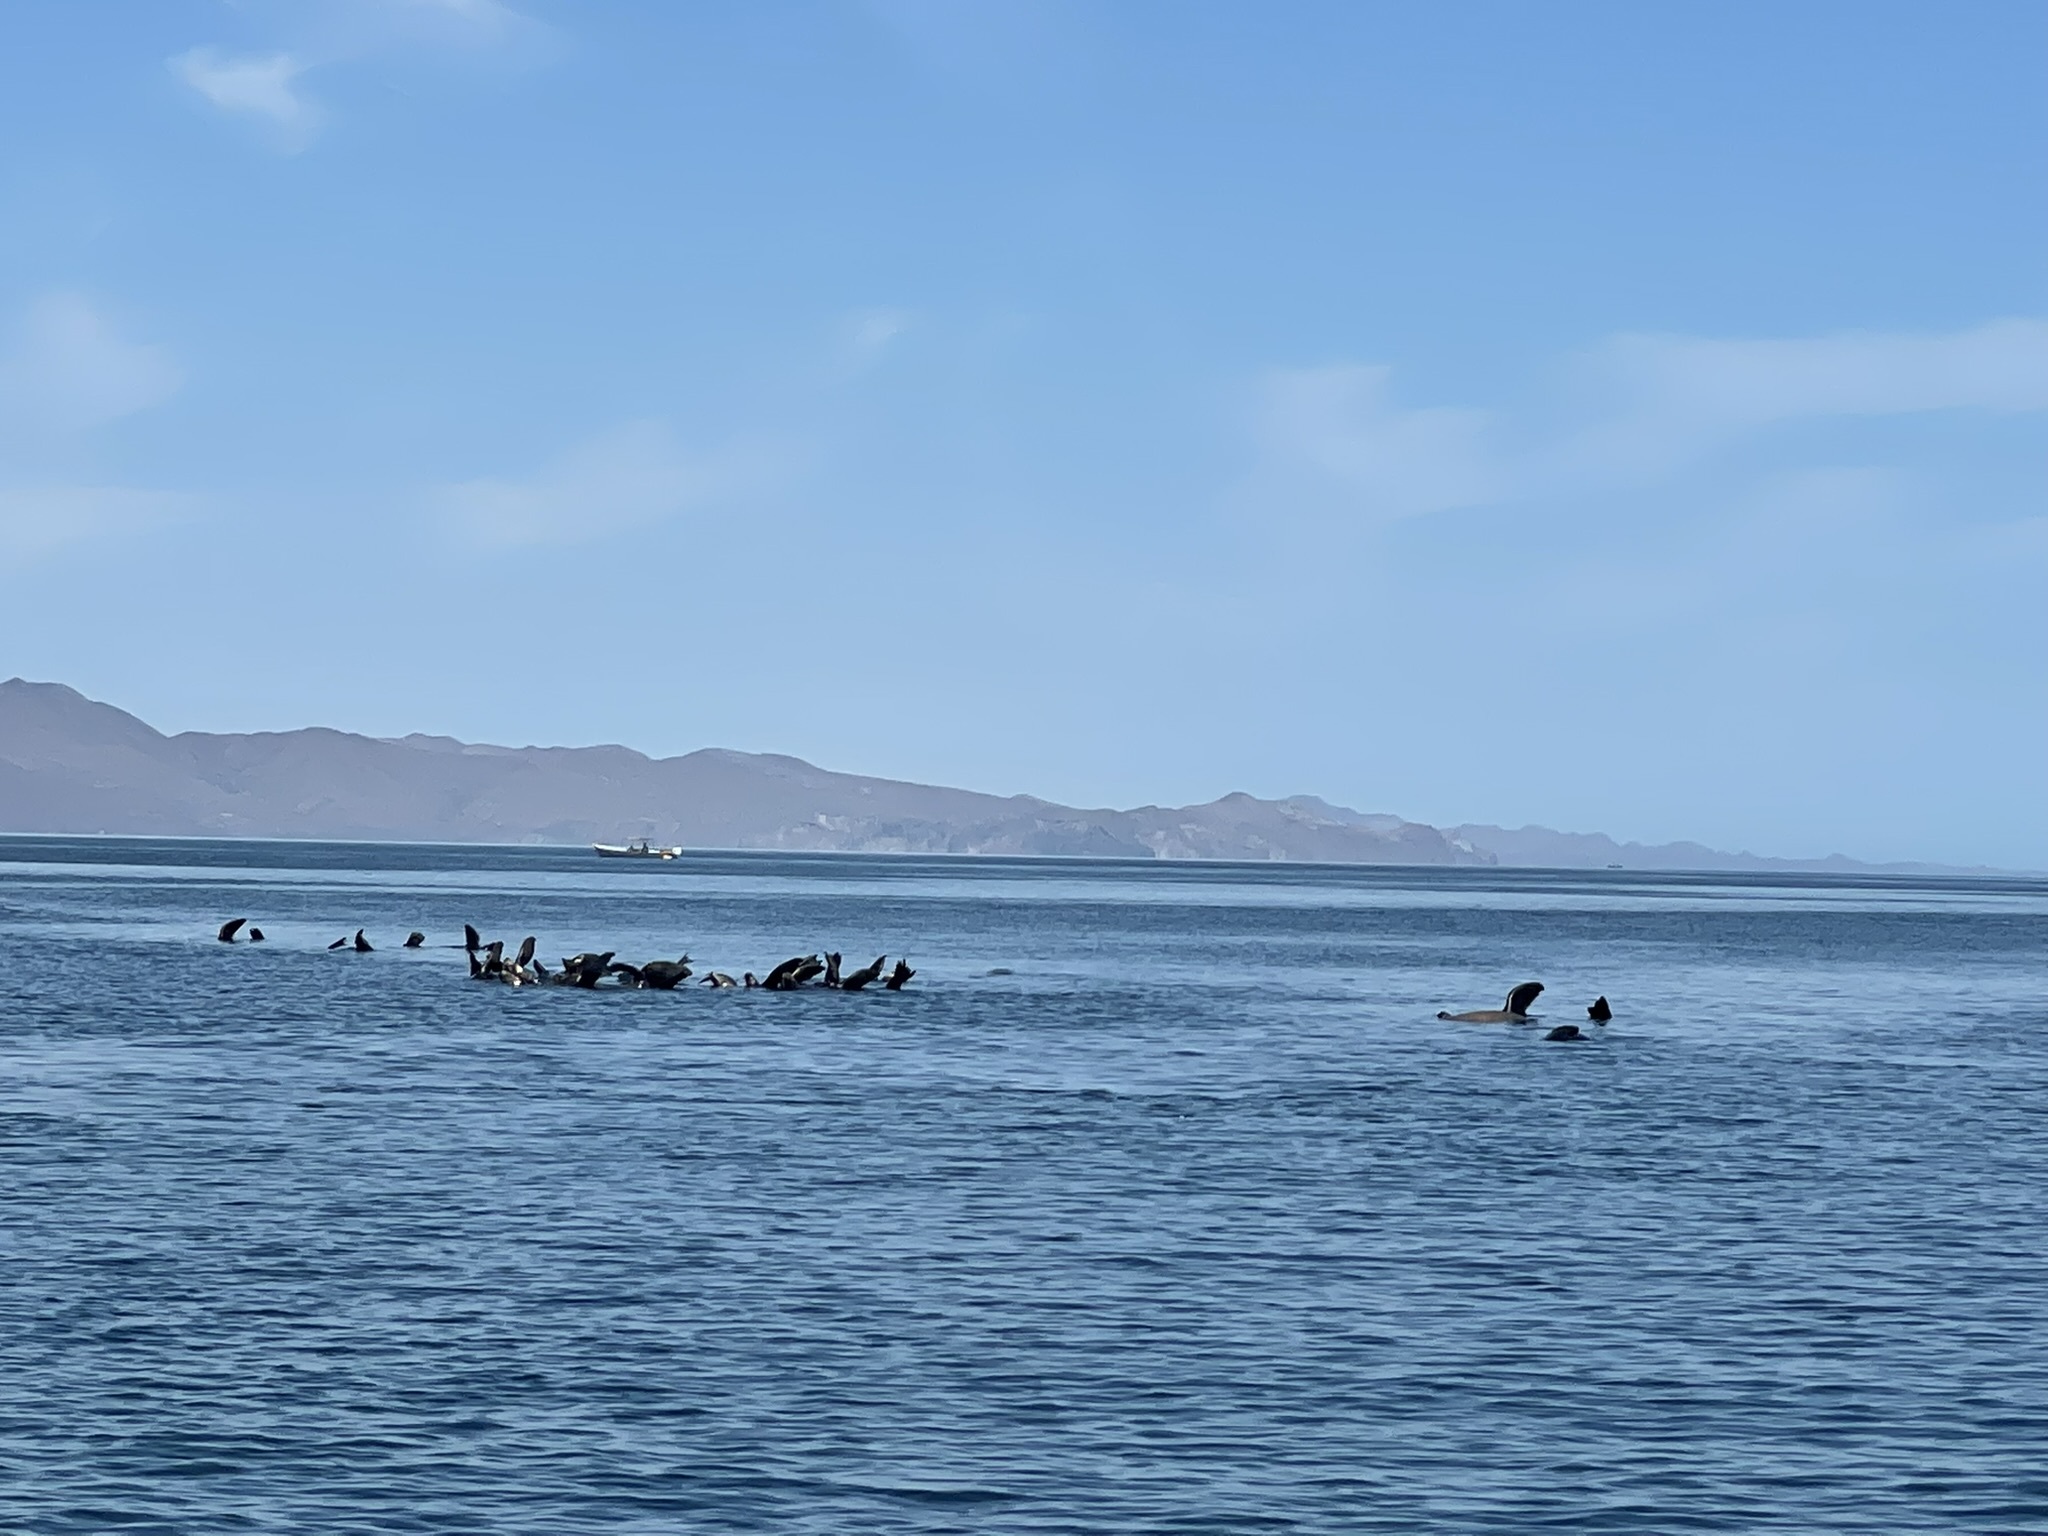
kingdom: Animalia
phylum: Chordata
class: Mammalia
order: Carnivora
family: Otariidae
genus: Zalophus
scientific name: Zalophus californianus
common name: California sea lion
